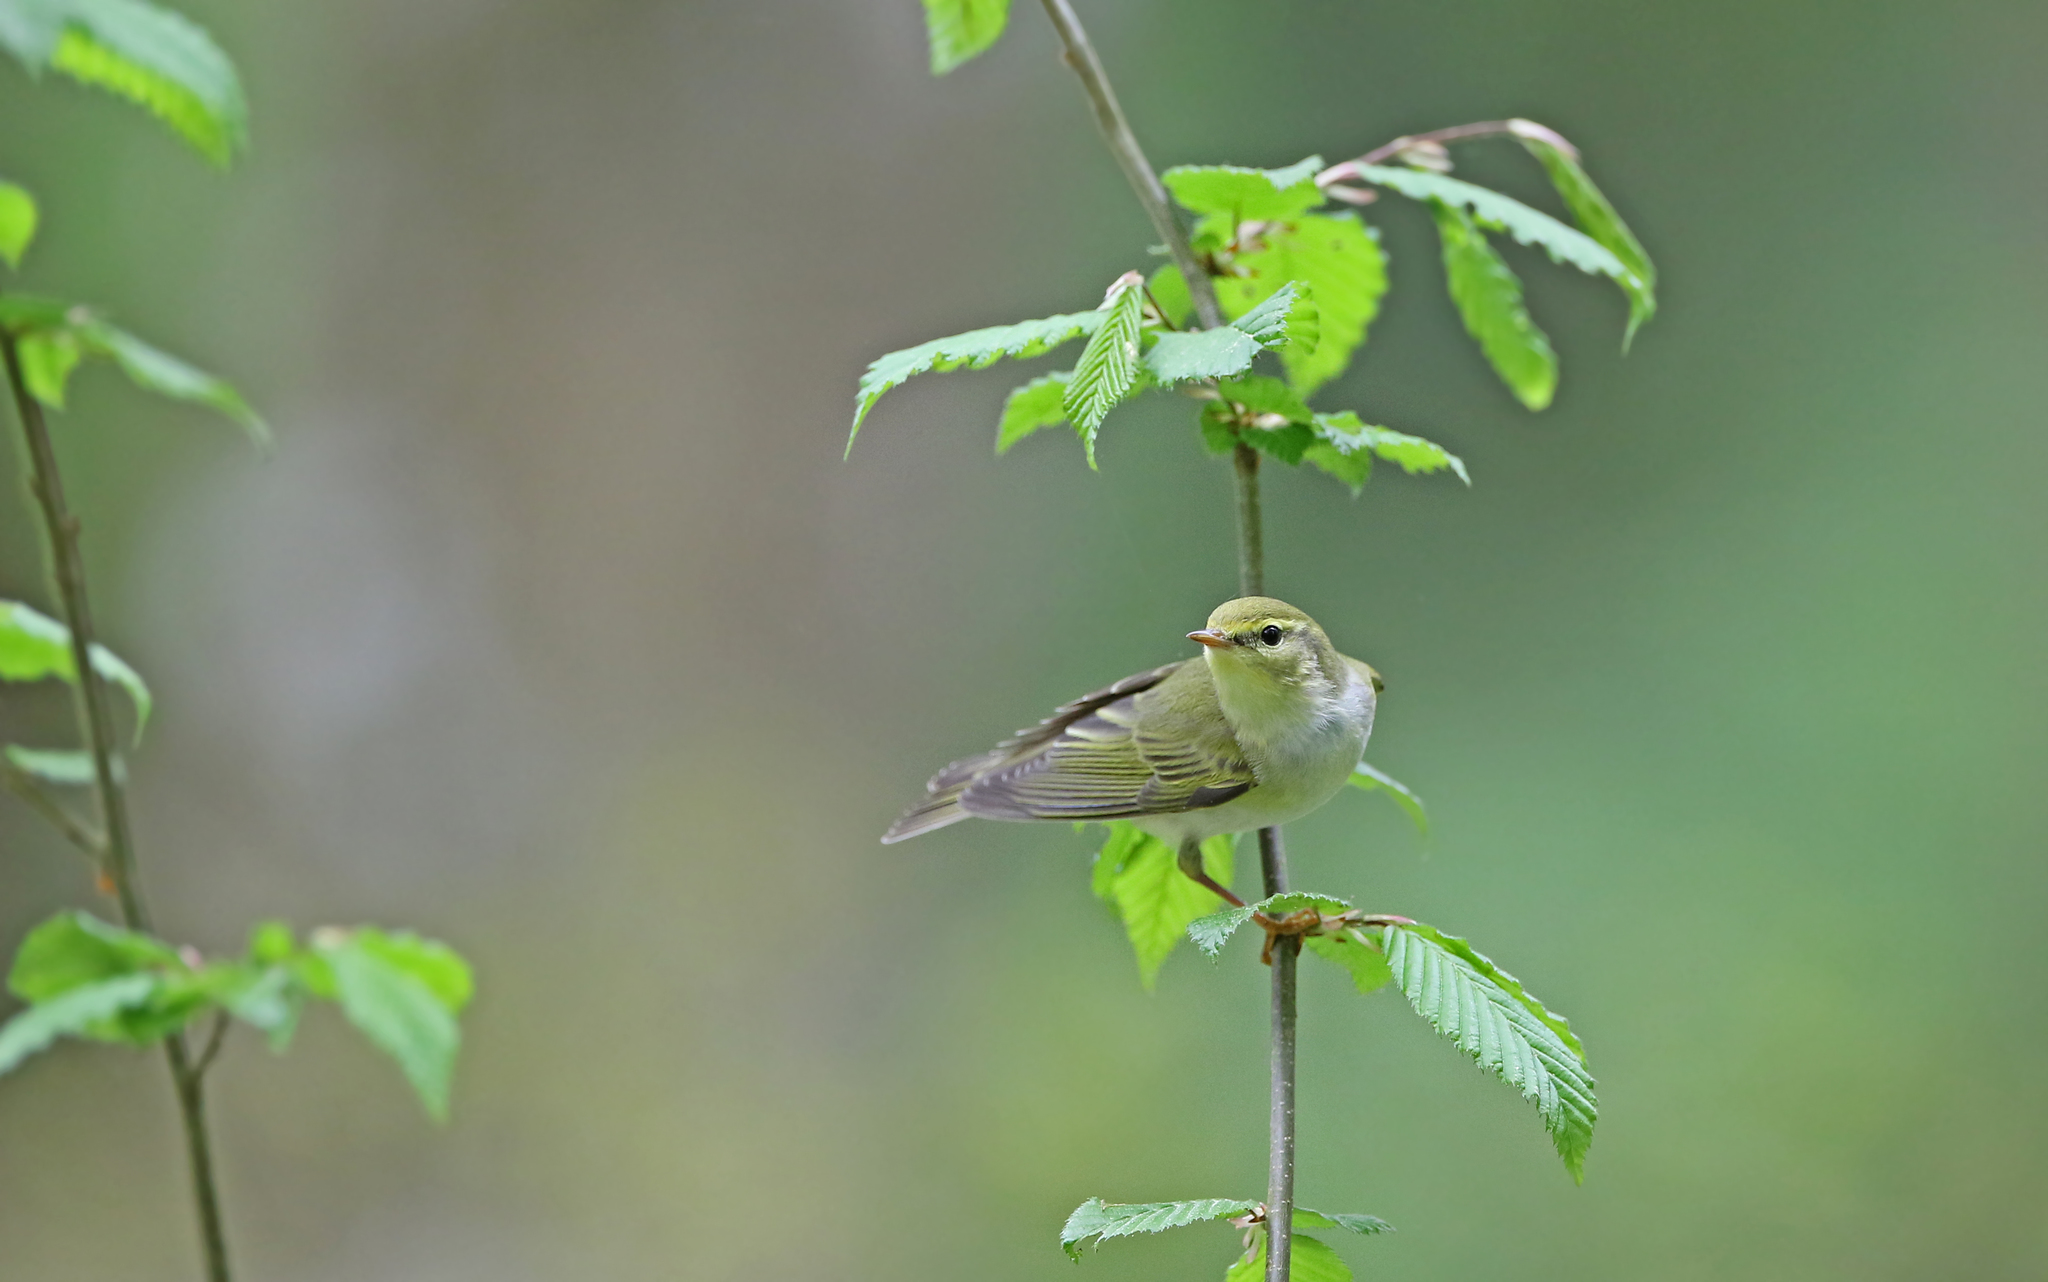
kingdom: Animalia
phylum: Chordata
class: Aves
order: Passeriformes
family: Phylloscopidae
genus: Phylloscopus
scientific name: Phylloscopus sibillatrix
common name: Wood warbler
